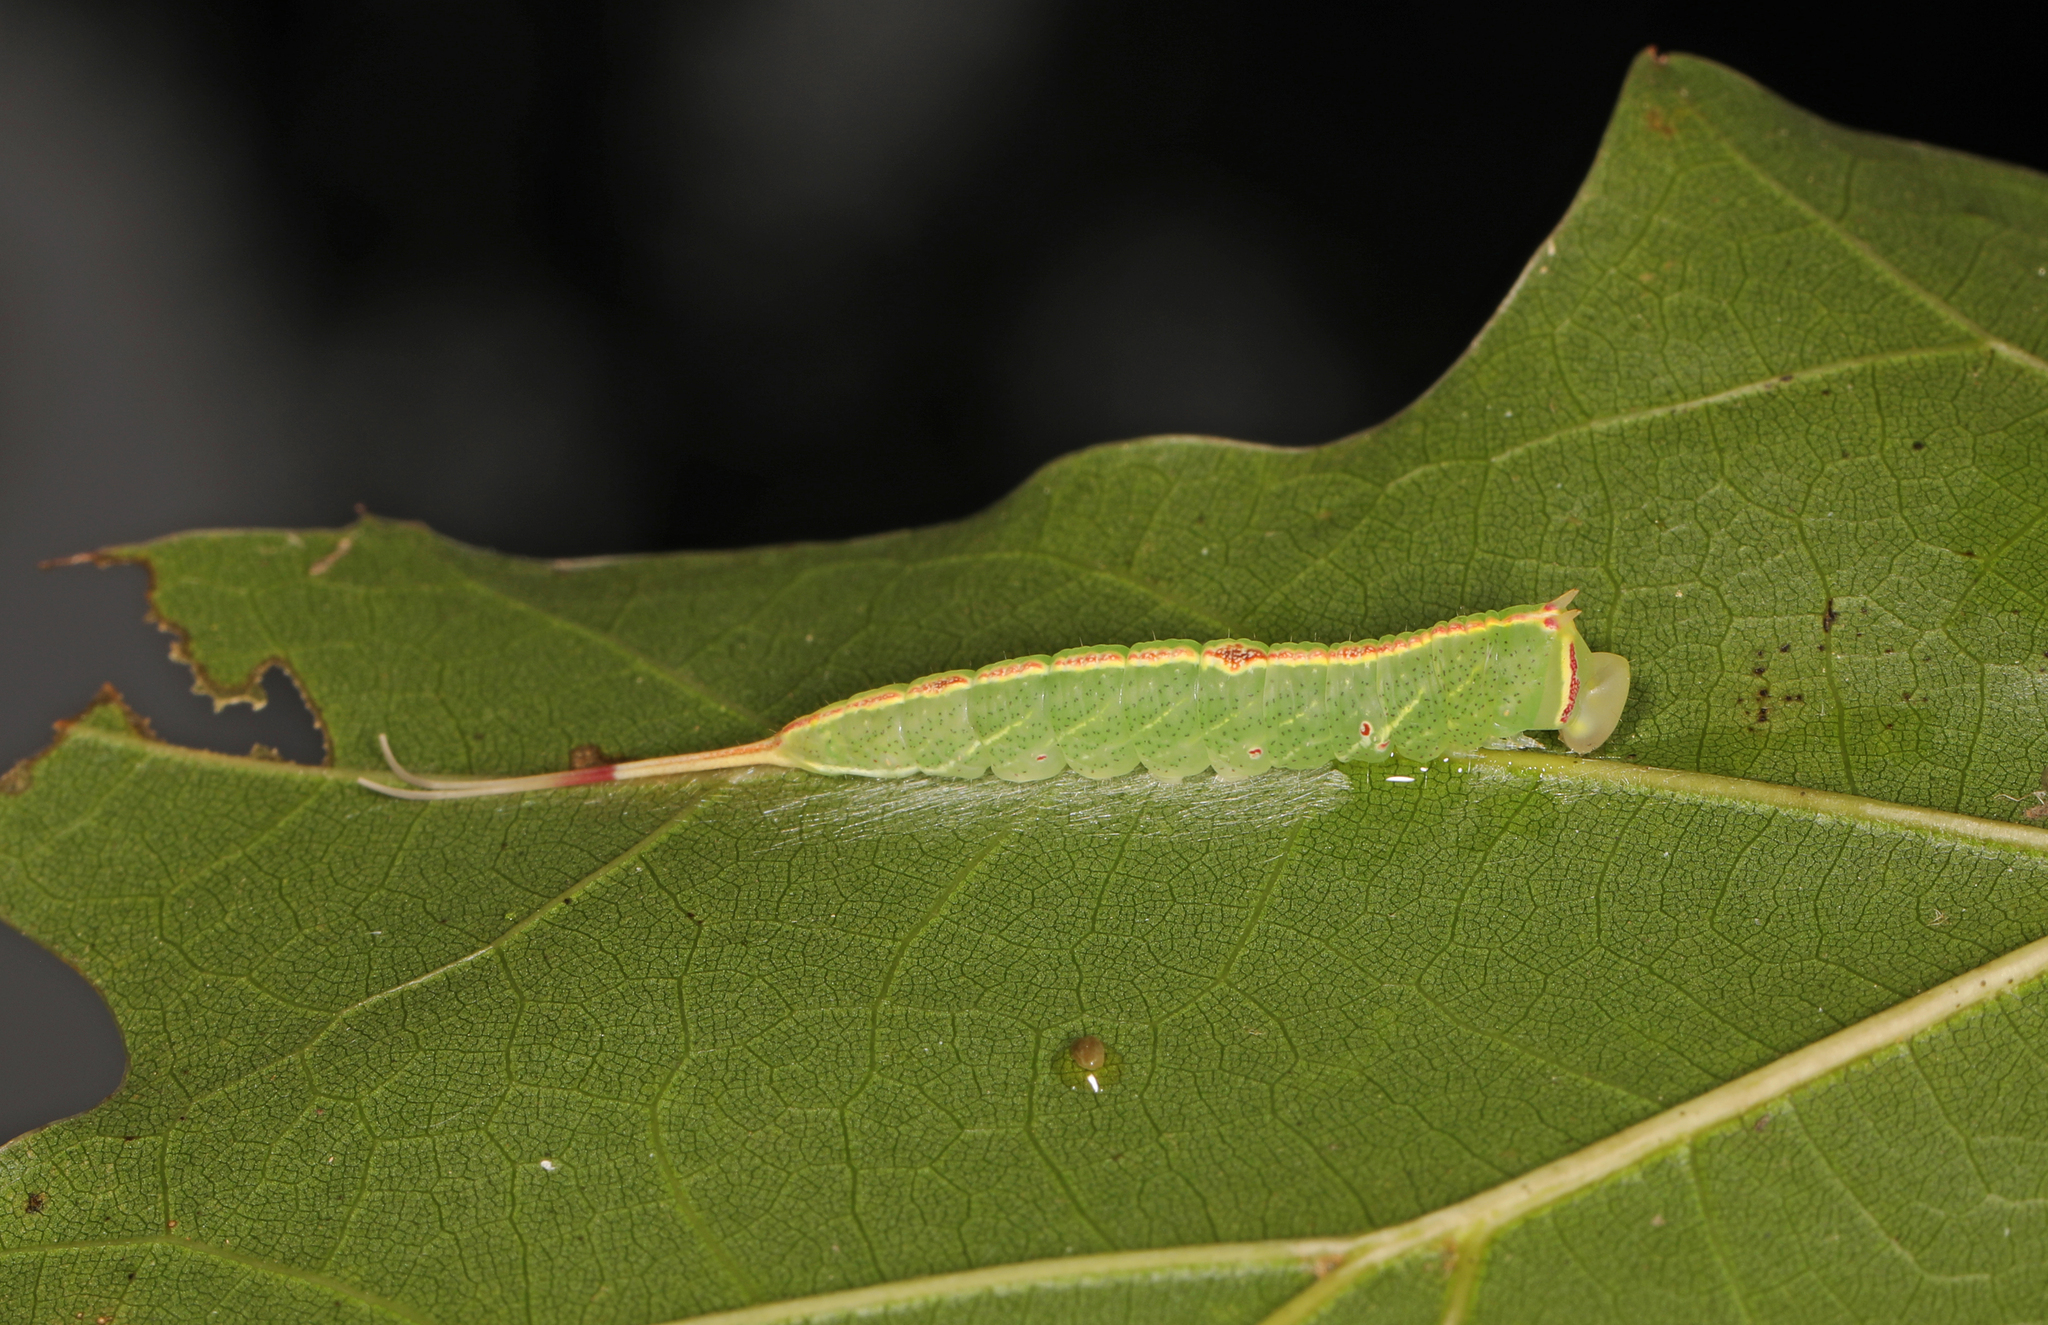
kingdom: Animalia
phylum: Arthropoda
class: Insecta
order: Lepidoptera
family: Notodontidae
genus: Macrurocampa
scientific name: Macrurocampa marthesia
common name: Mottled prominent
